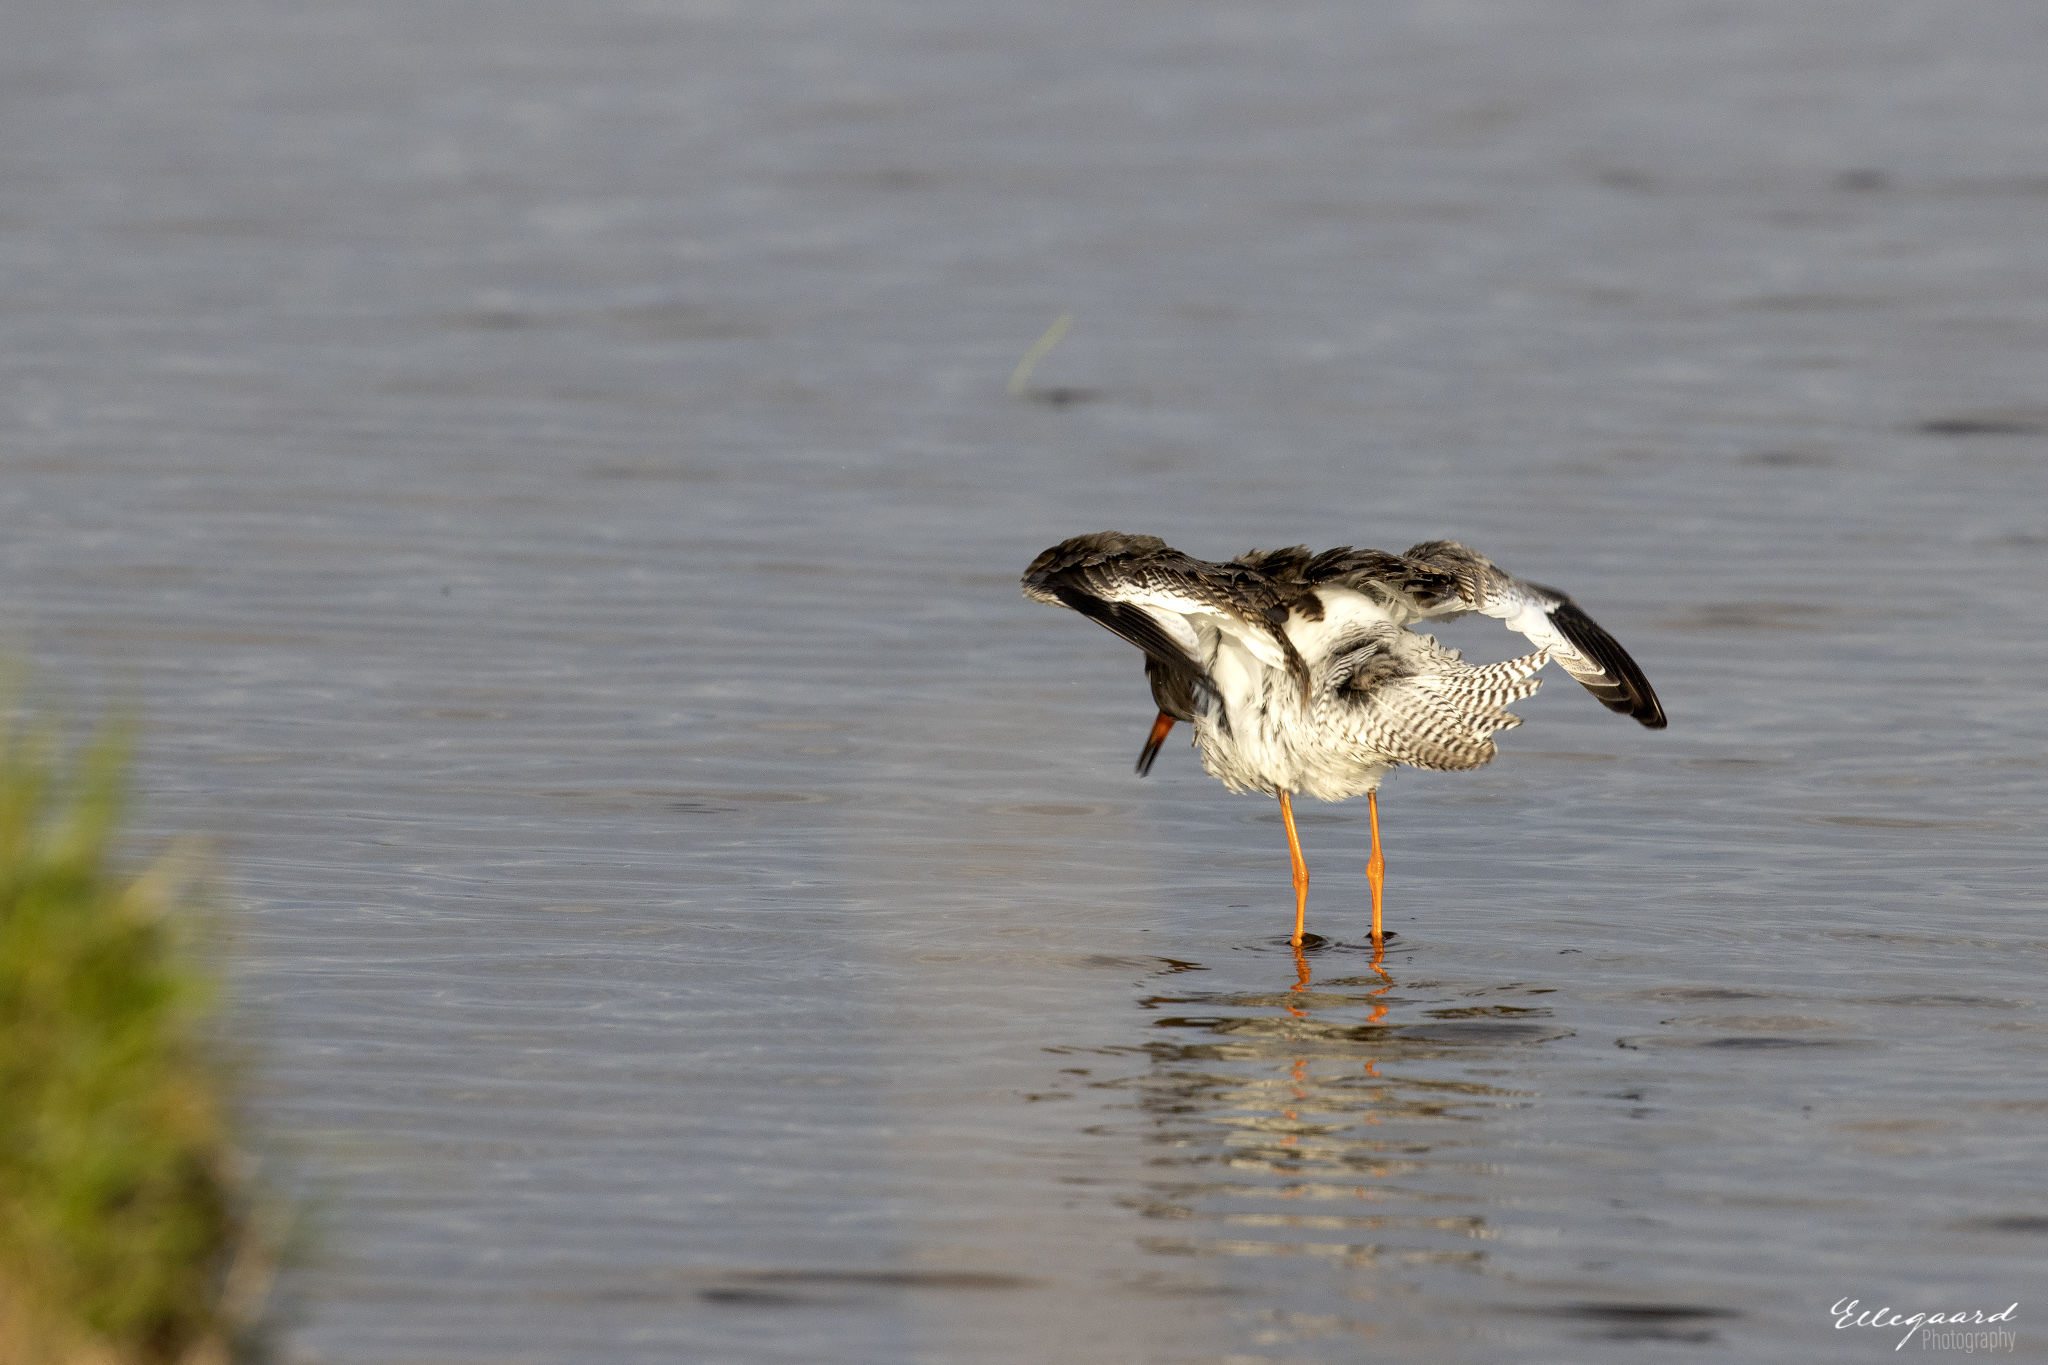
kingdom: Animalia
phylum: Chordata
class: Aves
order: Charadriiformes
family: Scolopacidae
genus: Tringa
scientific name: Tringa totanus
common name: Common redshank
